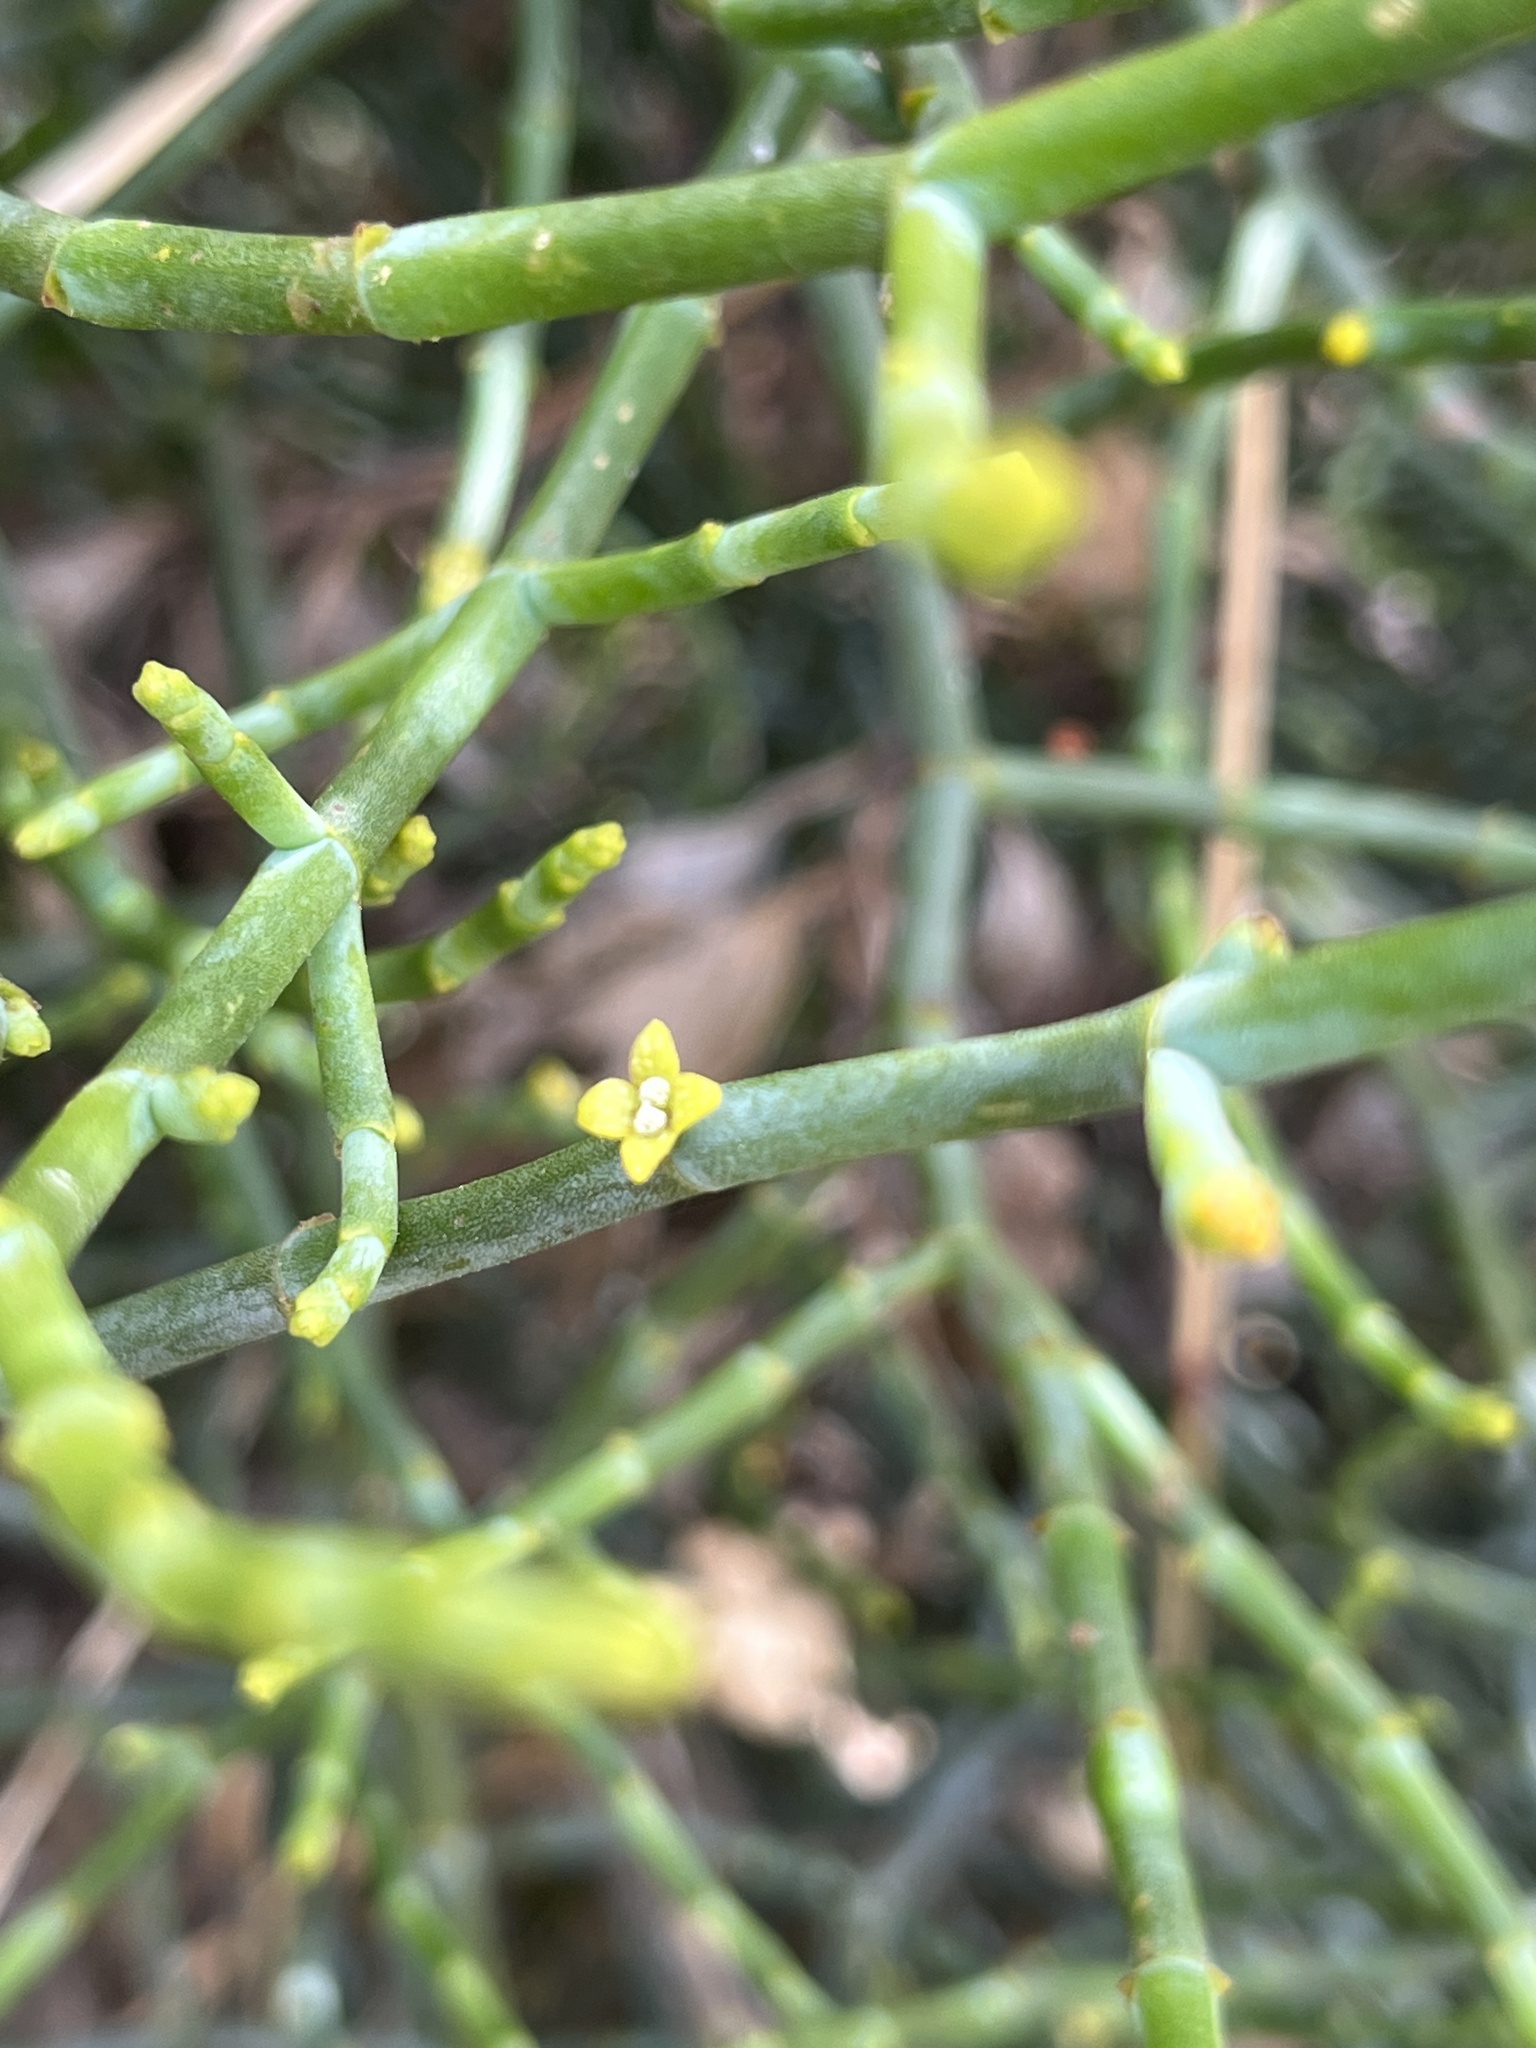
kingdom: Plantae
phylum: Tracheophyta
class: Magnoliopsida
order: Santalales
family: Viscaceae
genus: Viscum
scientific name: Viscum capense
